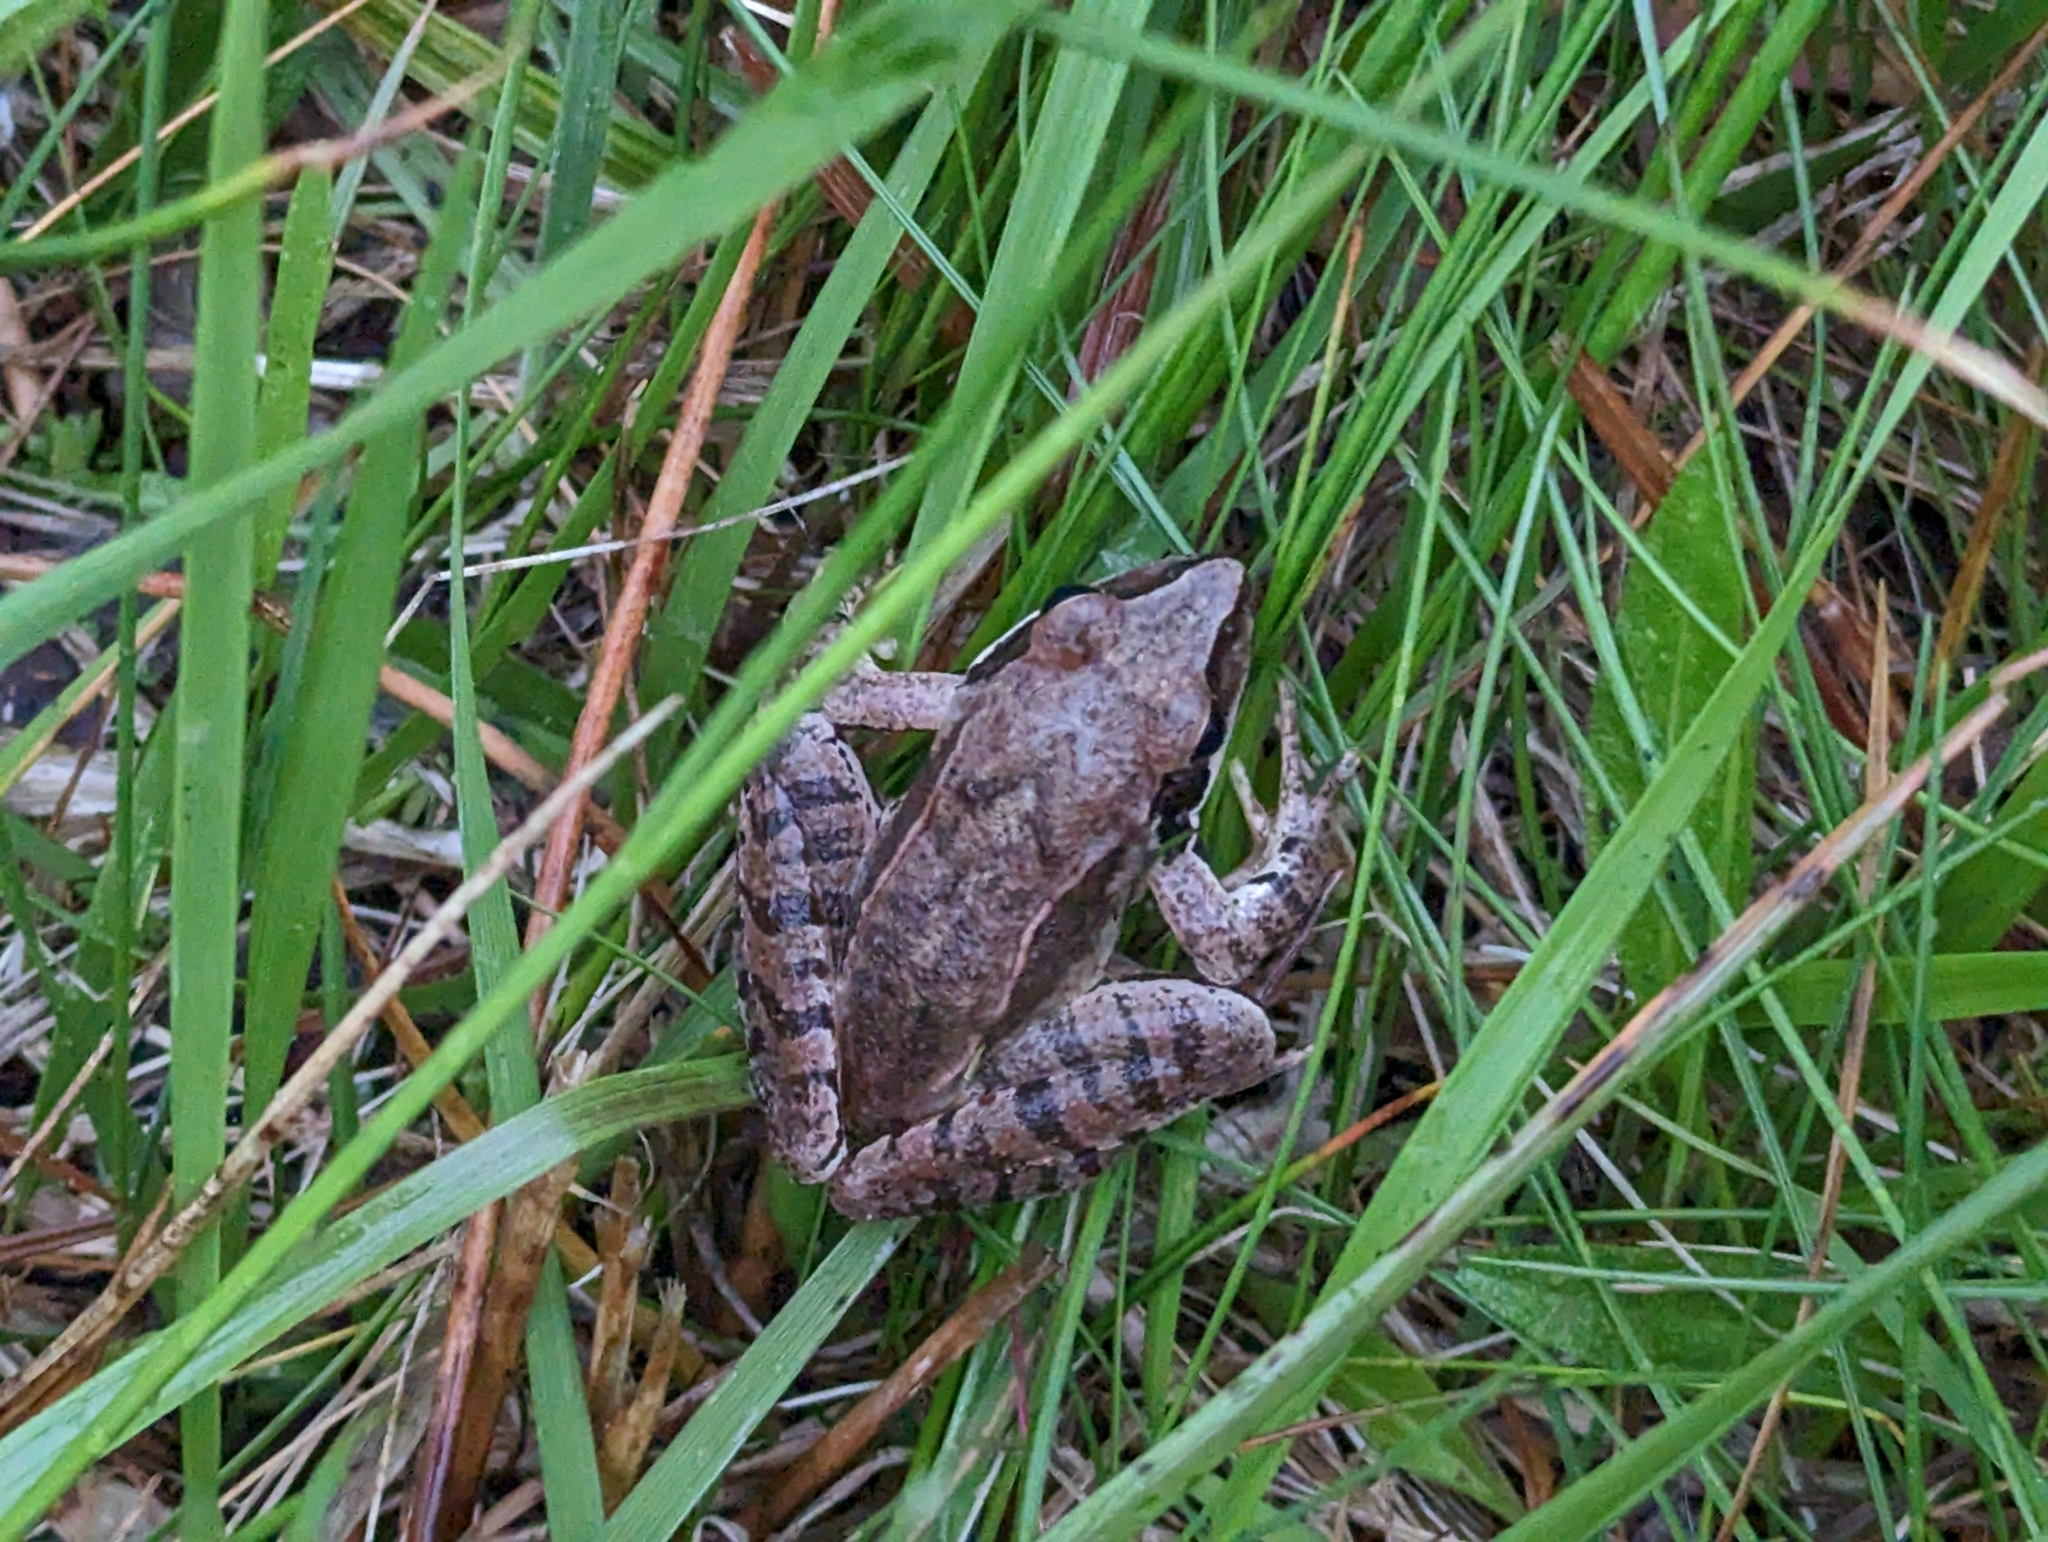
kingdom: Animalia
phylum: Chordata
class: Amphibia
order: Anura
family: Ranidae
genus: Rana
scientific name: Rana dalmatina
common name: Agile frog
